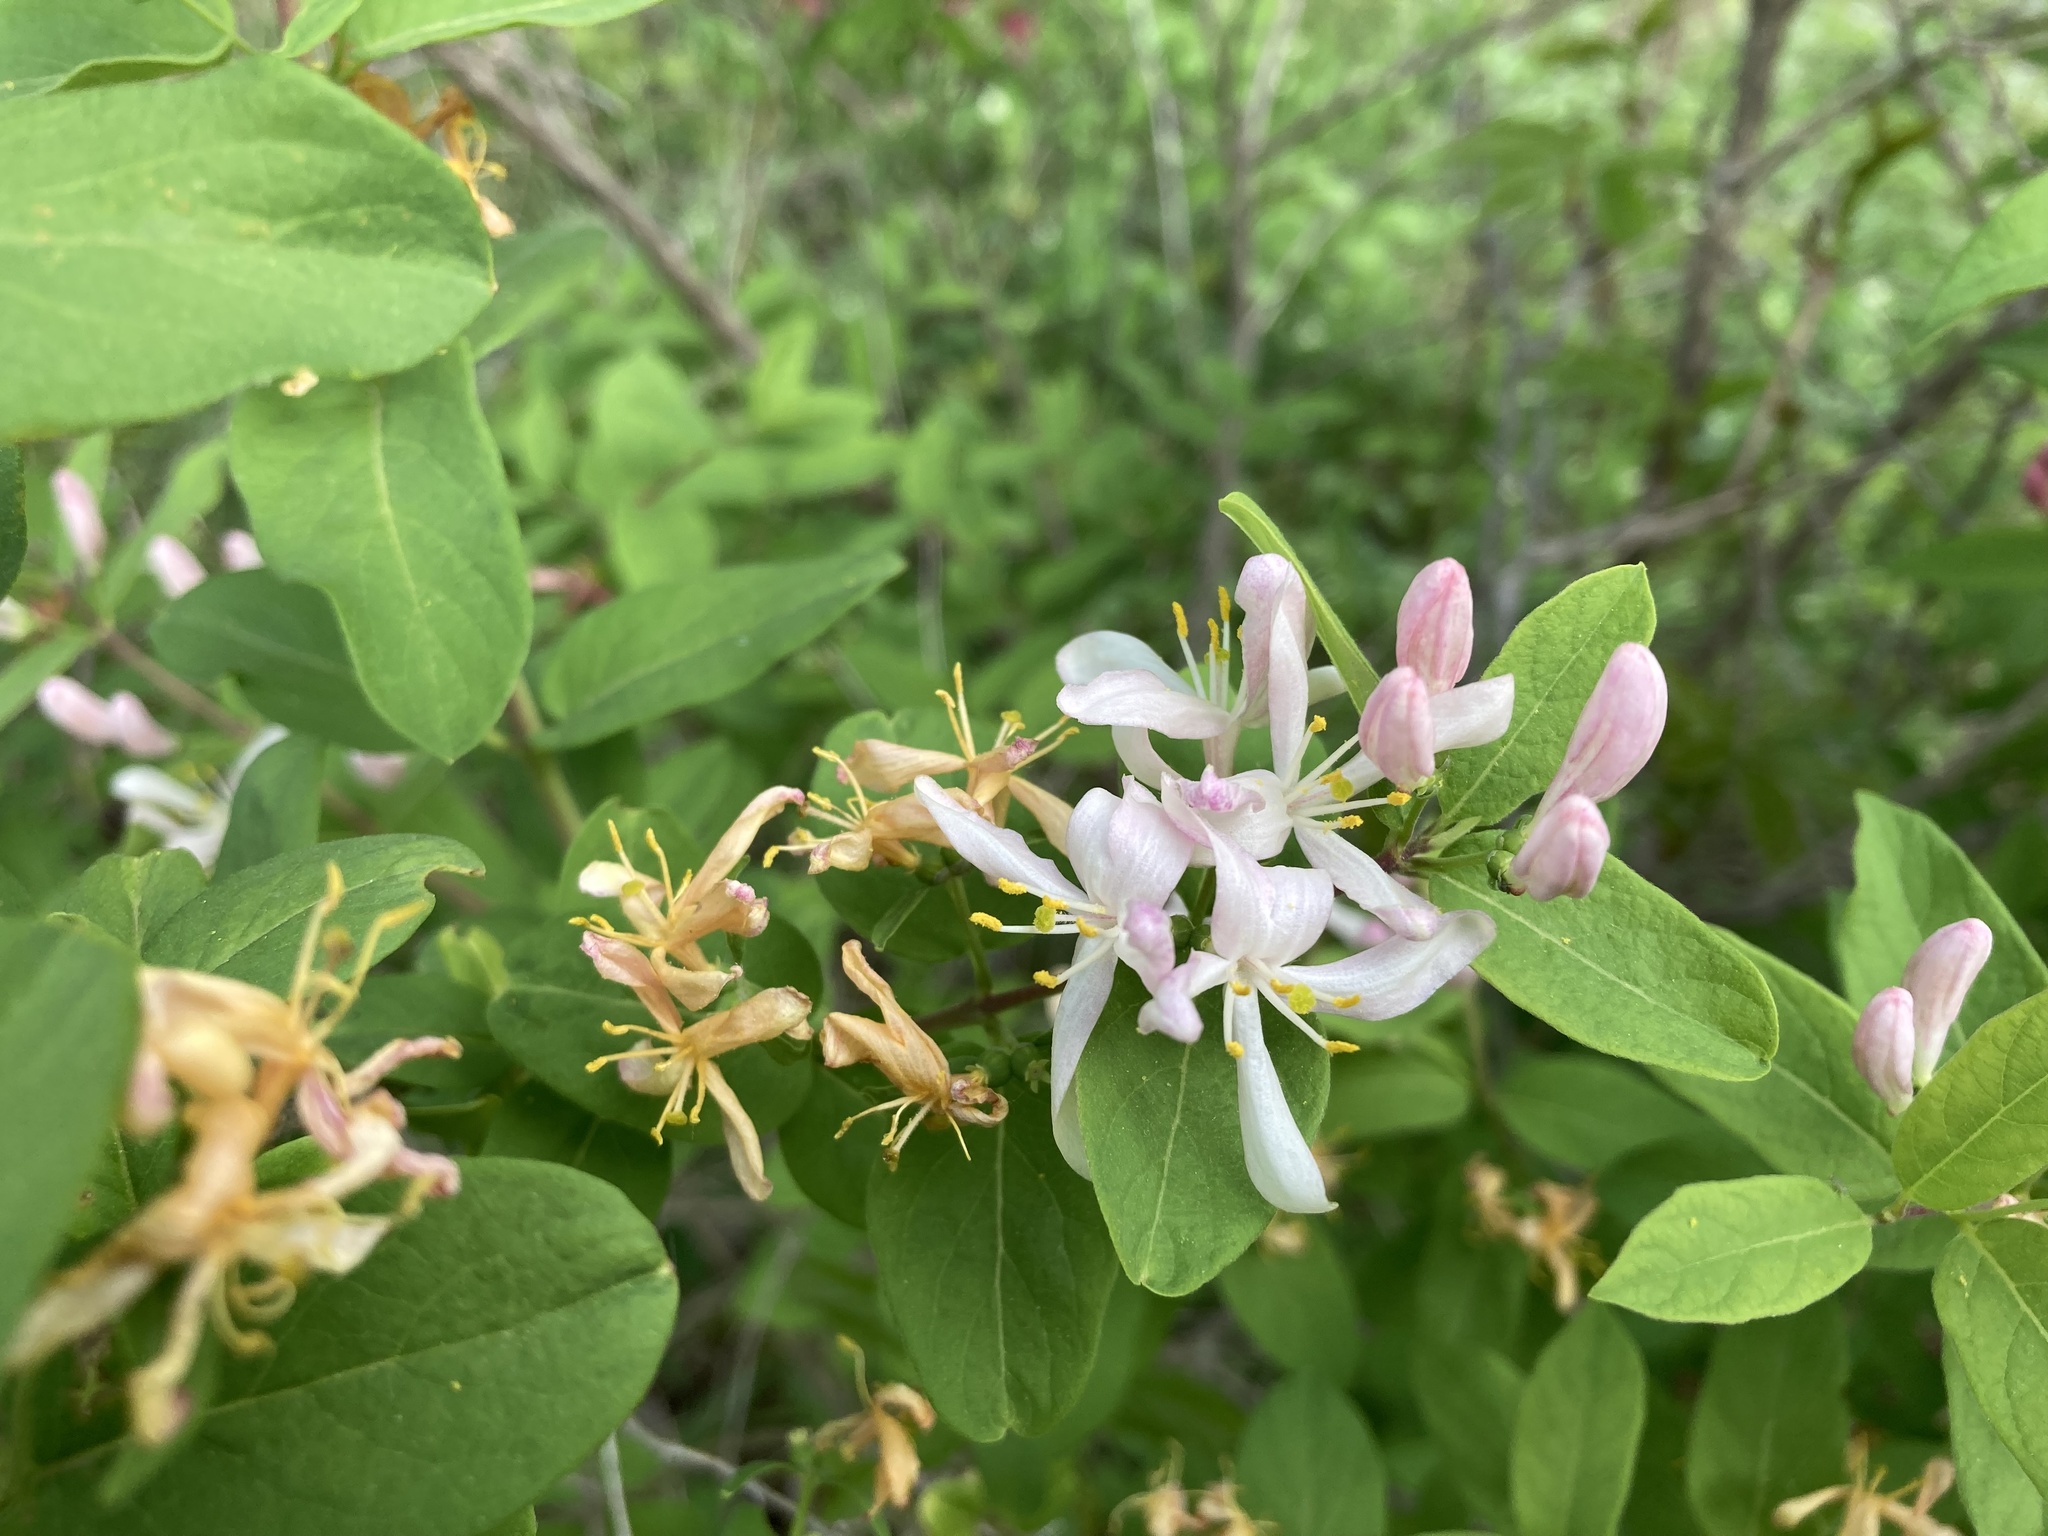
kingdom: Plantae
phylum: Tracheophyta
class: Magnoliopsida
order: Dipsacales
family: Caprifoliaceae
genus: Lonicera
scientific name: Lonicera bella
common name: Bell's honeysuckle
